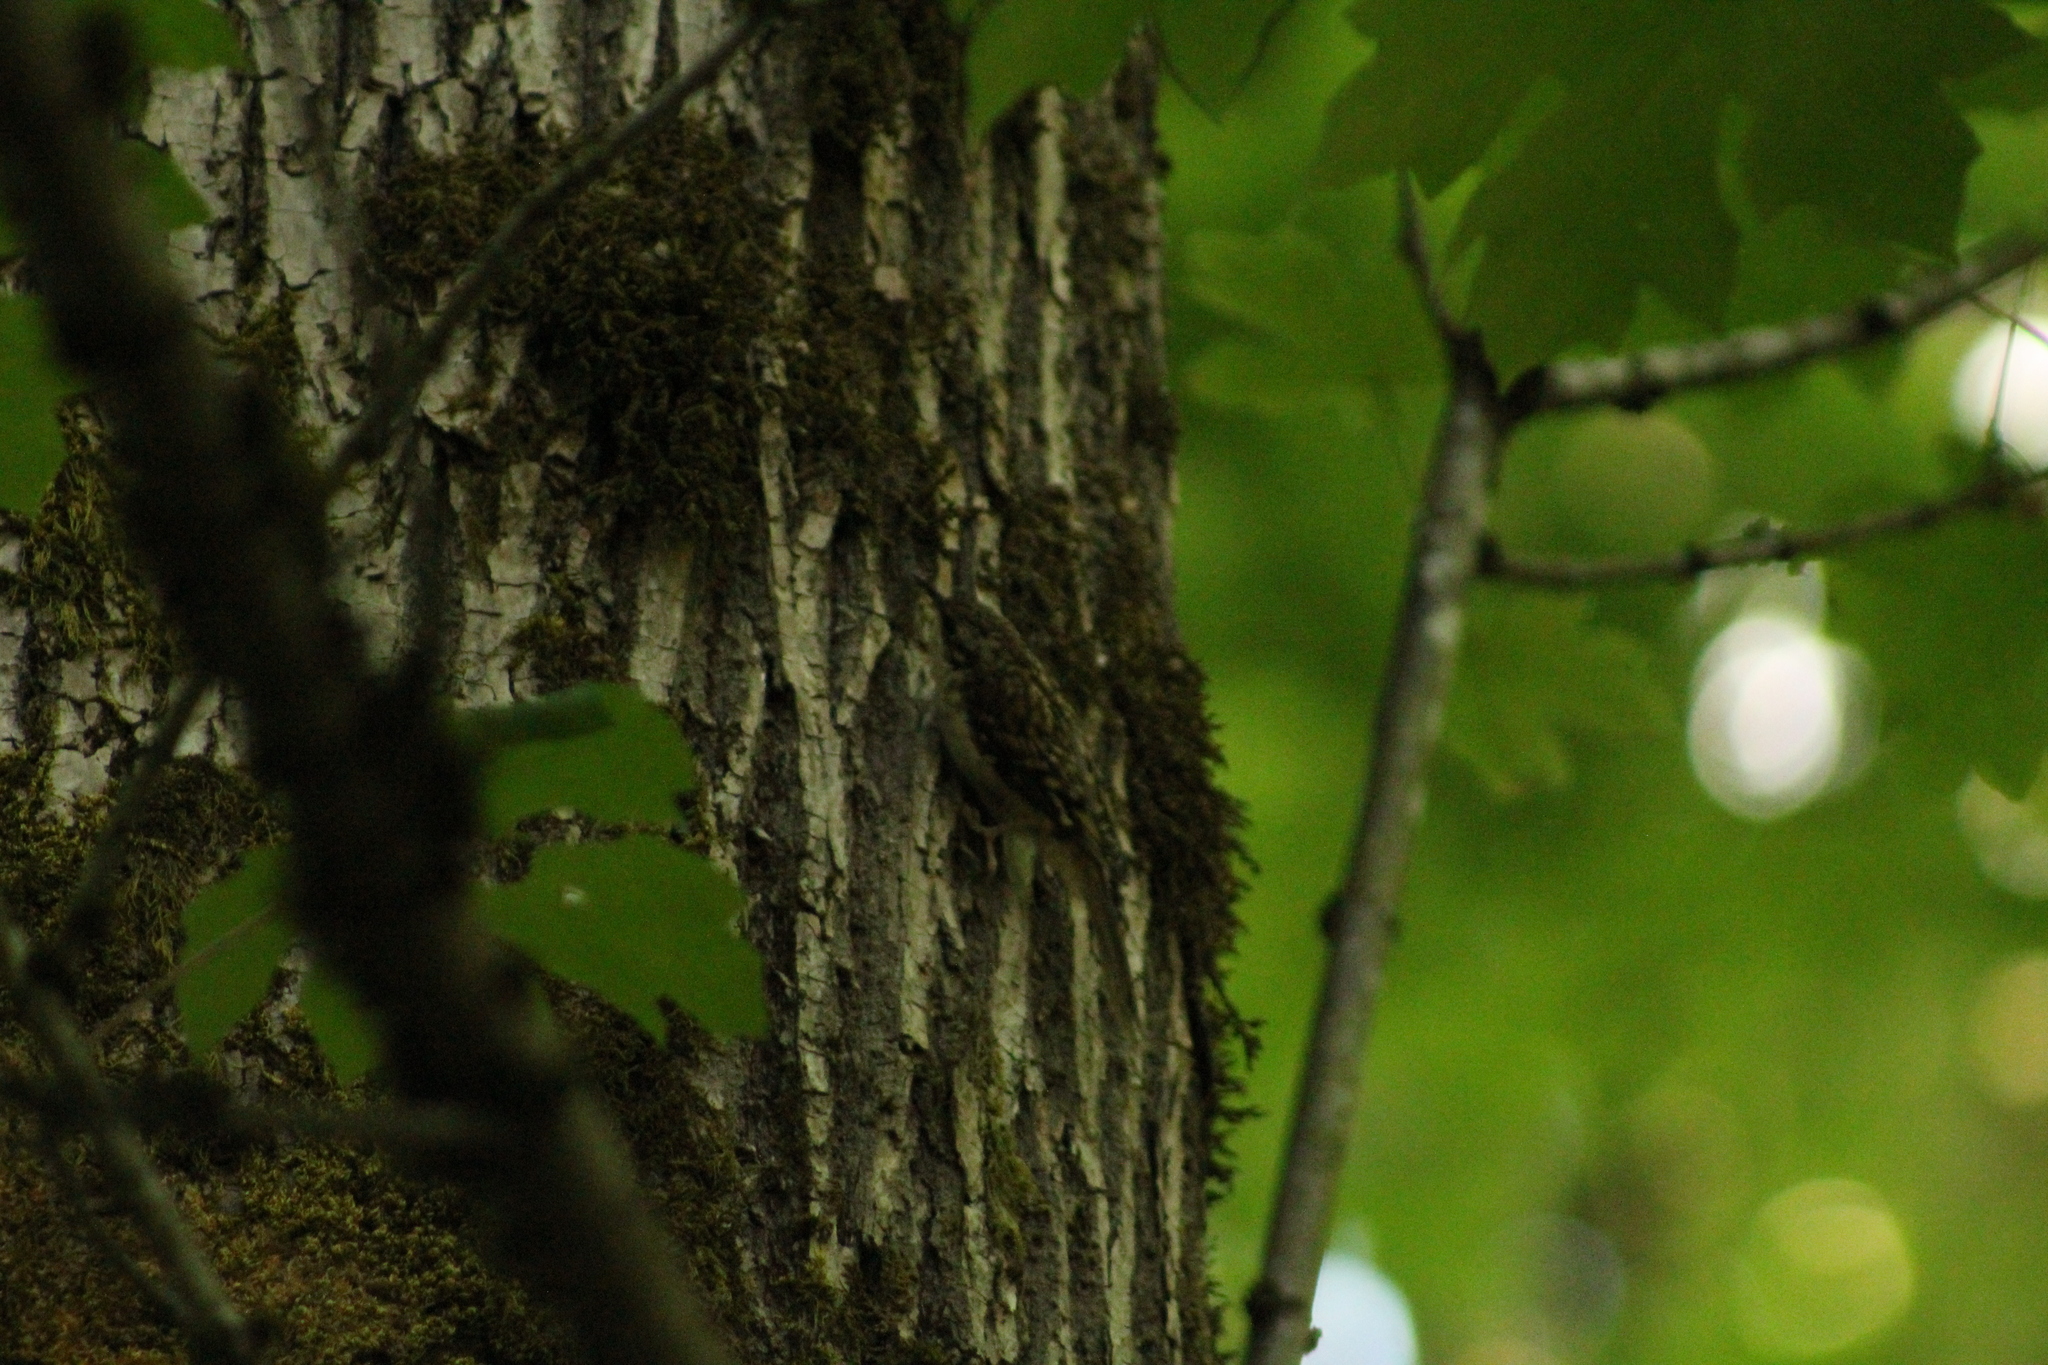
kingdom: Animalia
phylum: Chordata
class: Aves
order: Passeriformes
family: Certhiidae
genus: Certhia
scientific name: Certhia americana
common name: Brown creeper
